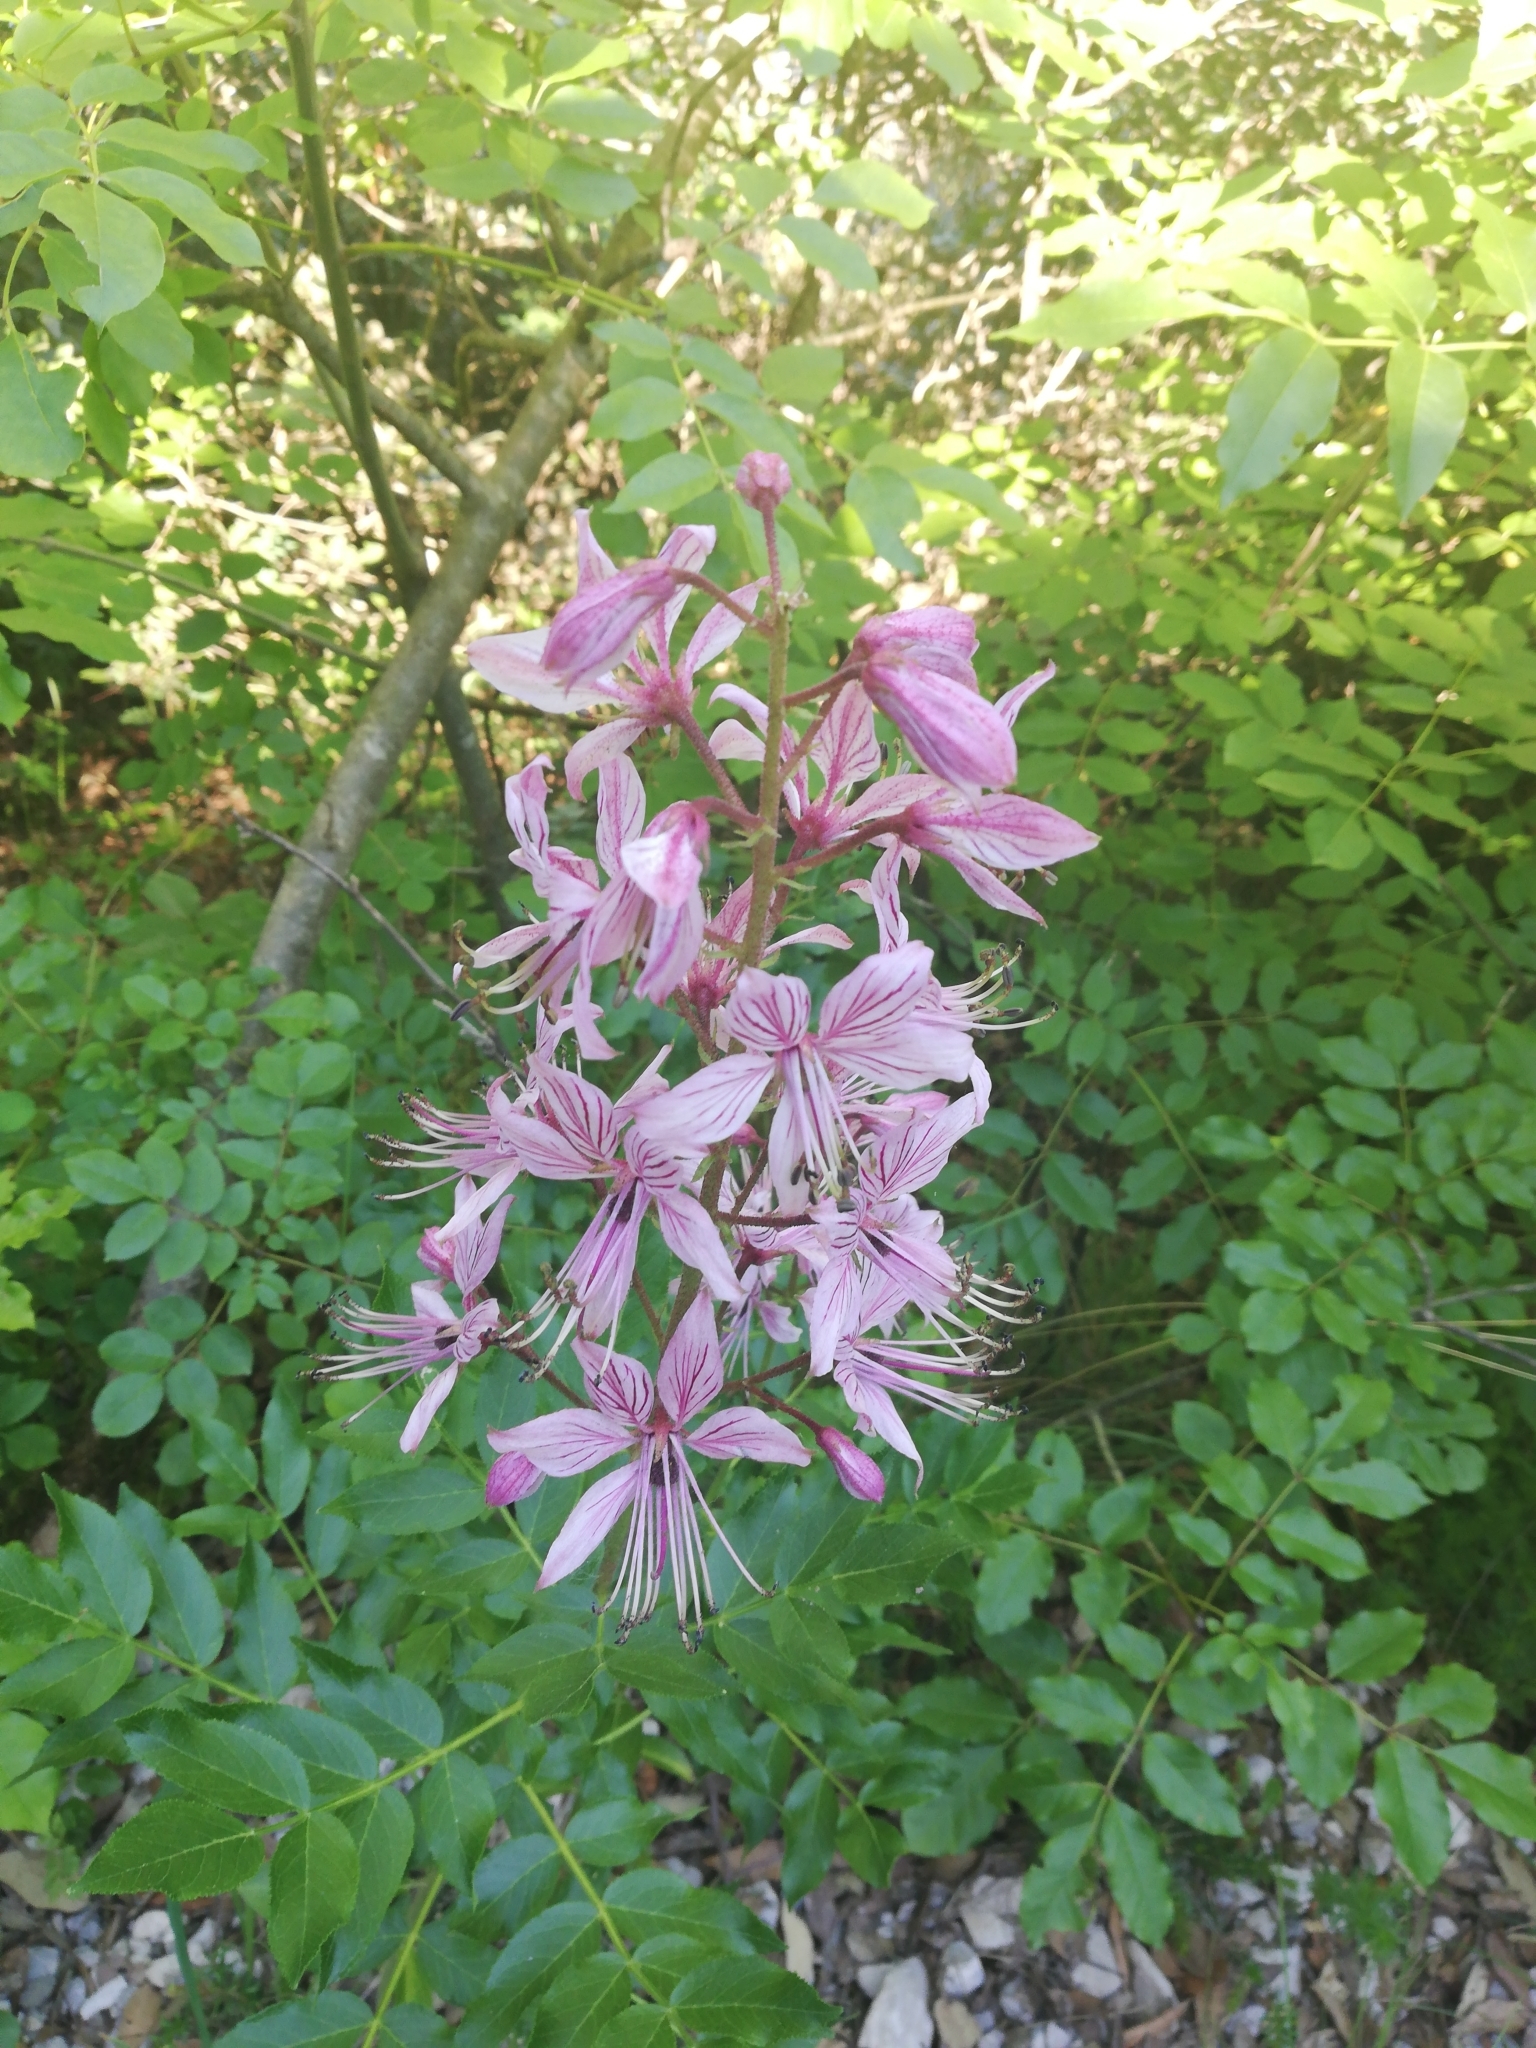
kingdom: Plantae
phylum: Tracheophyta
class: Magnoliopsida
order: Sapindales
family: Rutaceae
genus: Dictamnus
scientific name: Dictamnus albus
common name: Gasplant
